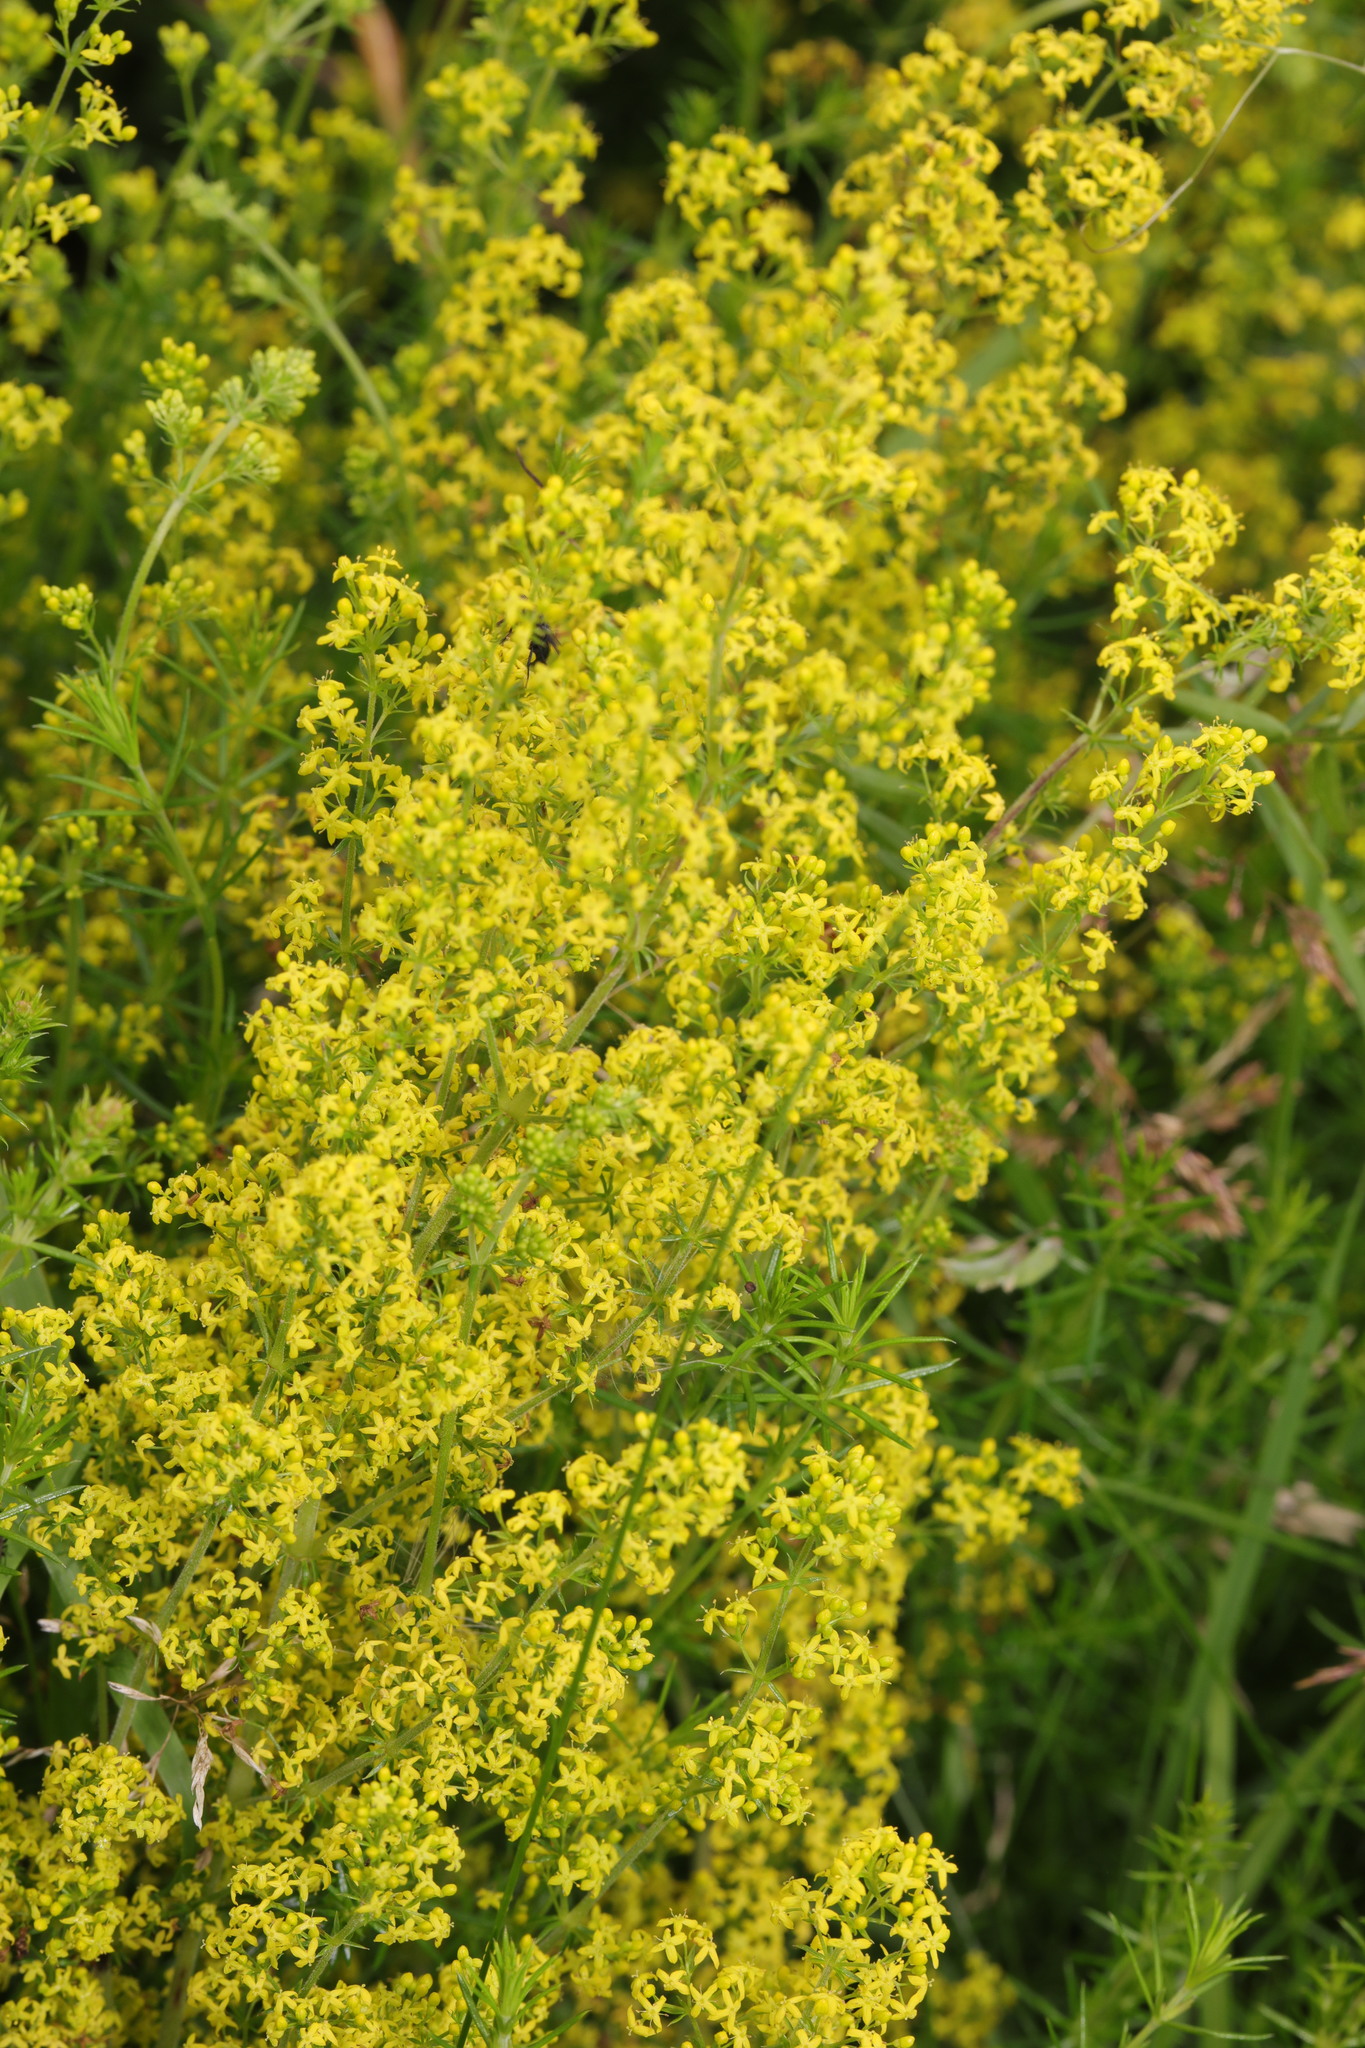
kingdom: Plantae
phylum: Tracheophyta
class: Magnoliopsida
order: Gentianales
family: Rubiaceae
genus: Galium
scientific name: Galium verum
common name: Lady's bedstraw
